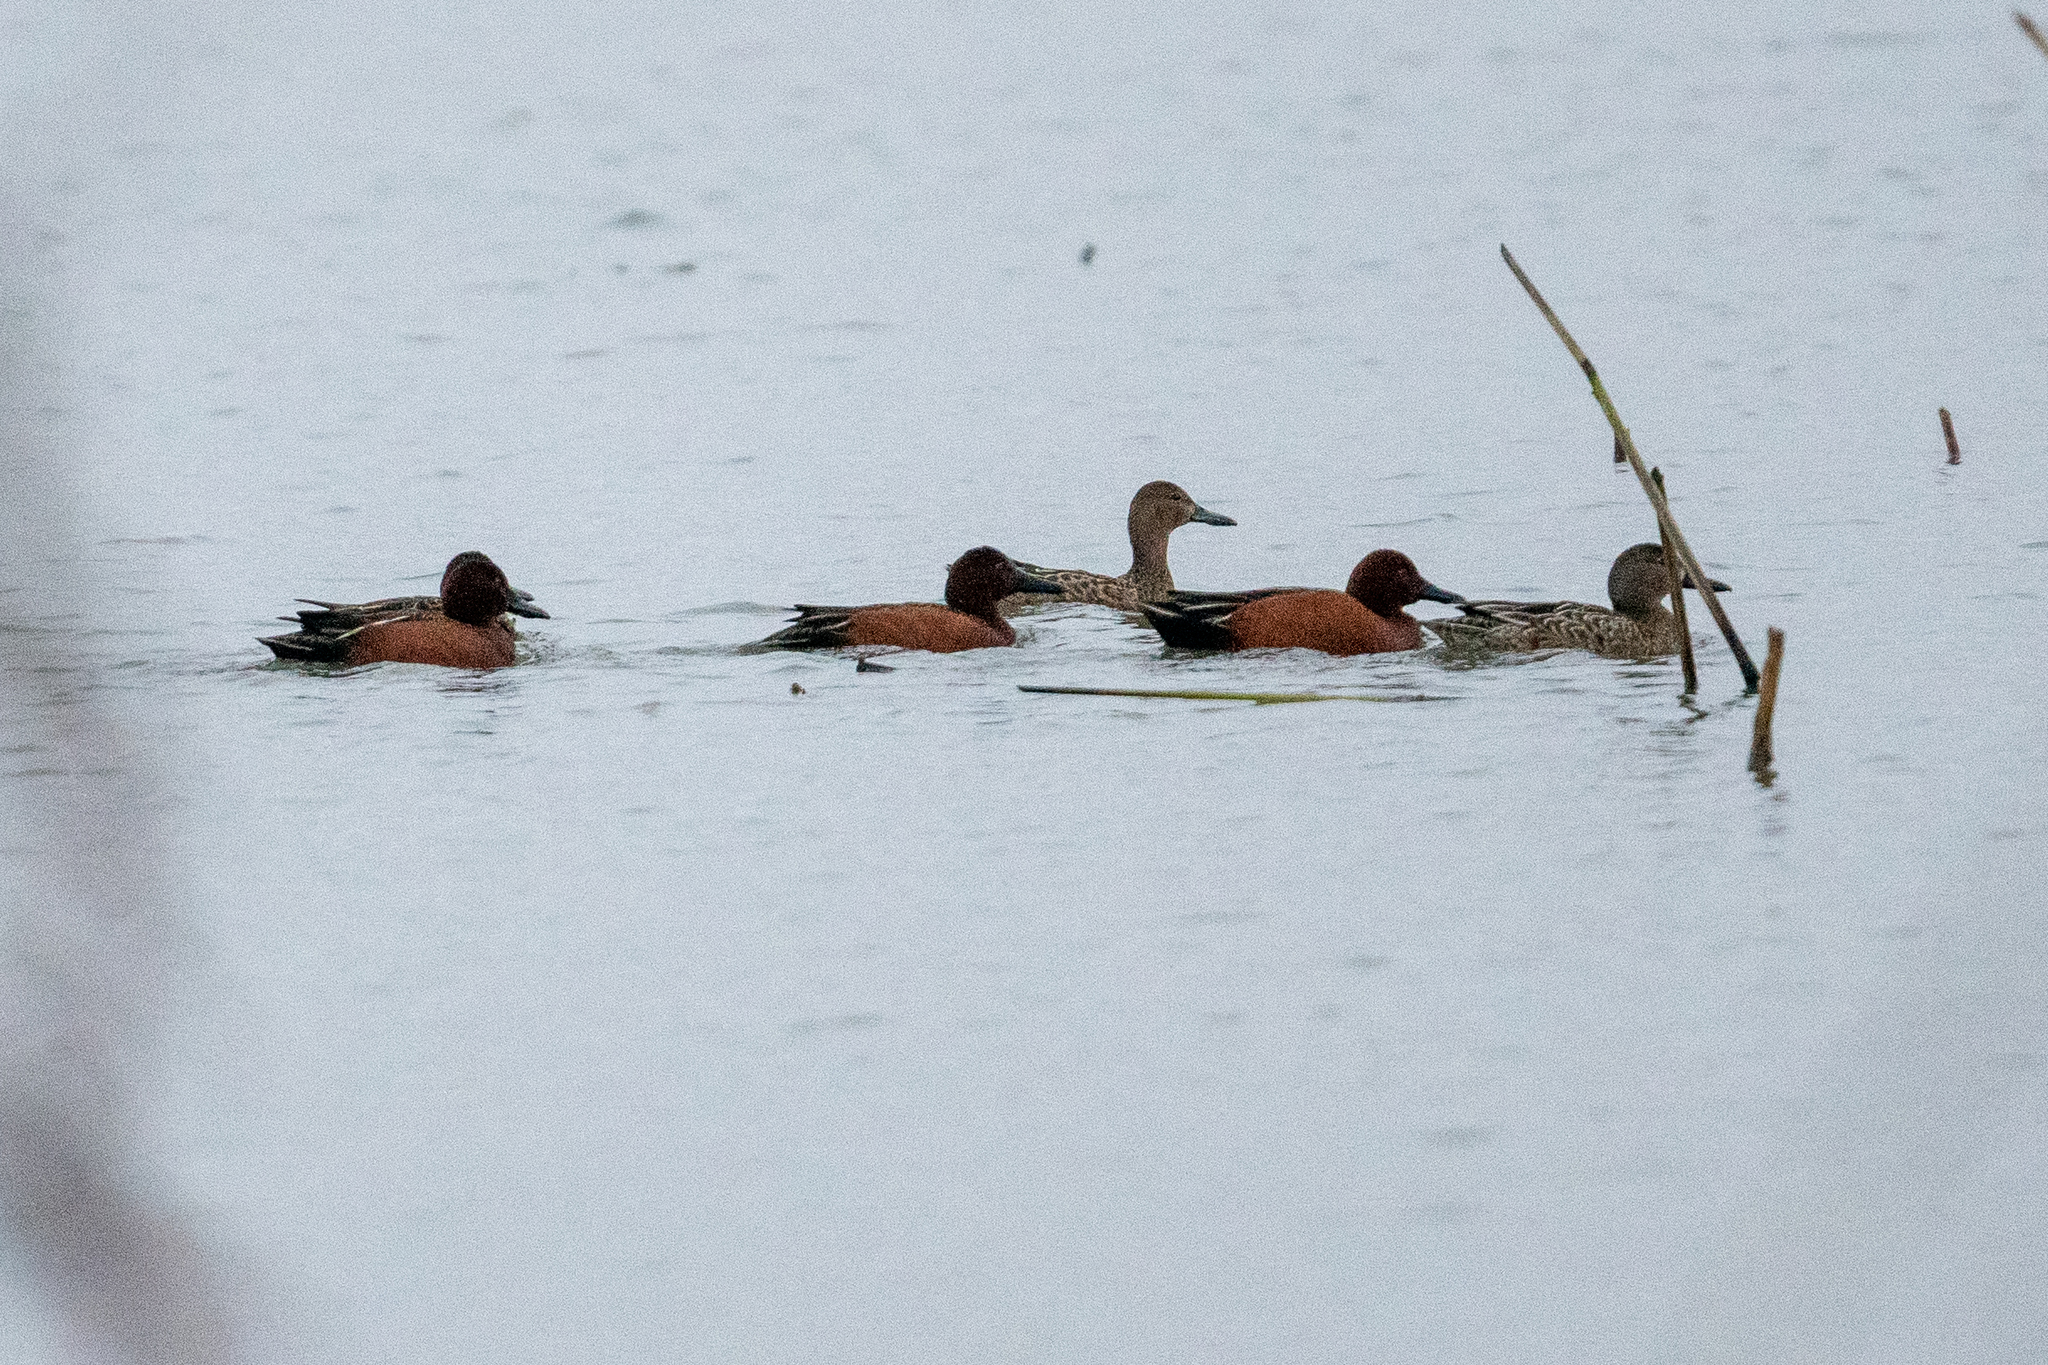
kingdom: Animalia
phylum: Chordata
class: Aves
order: Anseriformes
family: Anatidae
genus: Spatula
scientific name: Spatula cyanoptera
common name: Cinnamon teal
